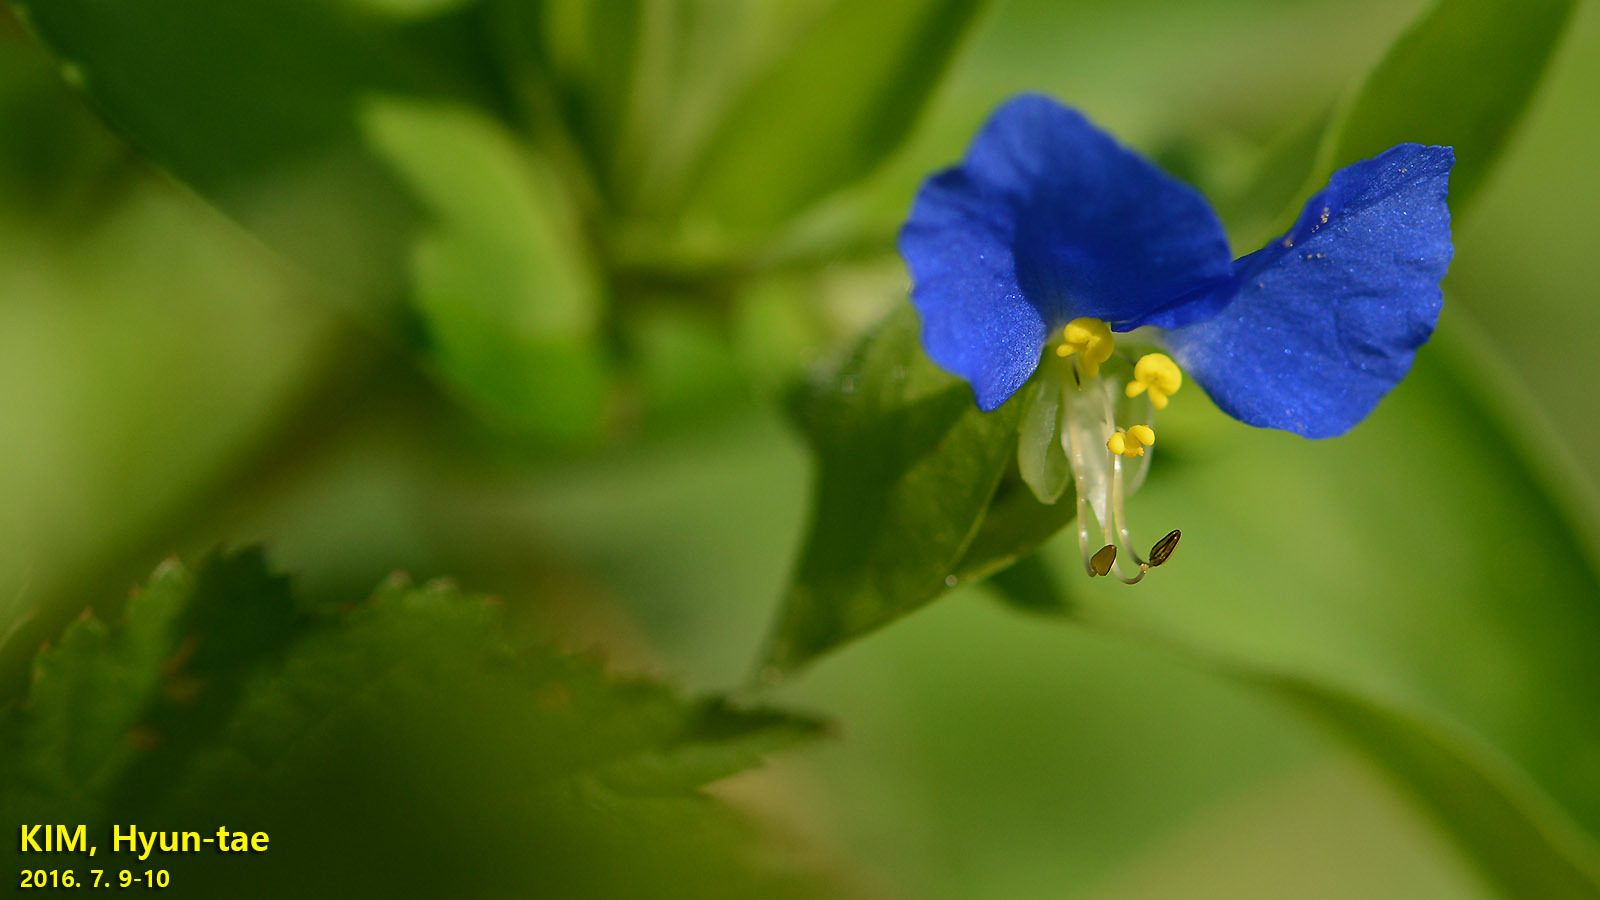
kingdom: Plantae
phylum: Tracheophyta
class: Liliopsida
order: Commelinales
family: Commelinaceae
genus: Commelina
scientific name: Commelina communis
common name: Asiatic dayflower
